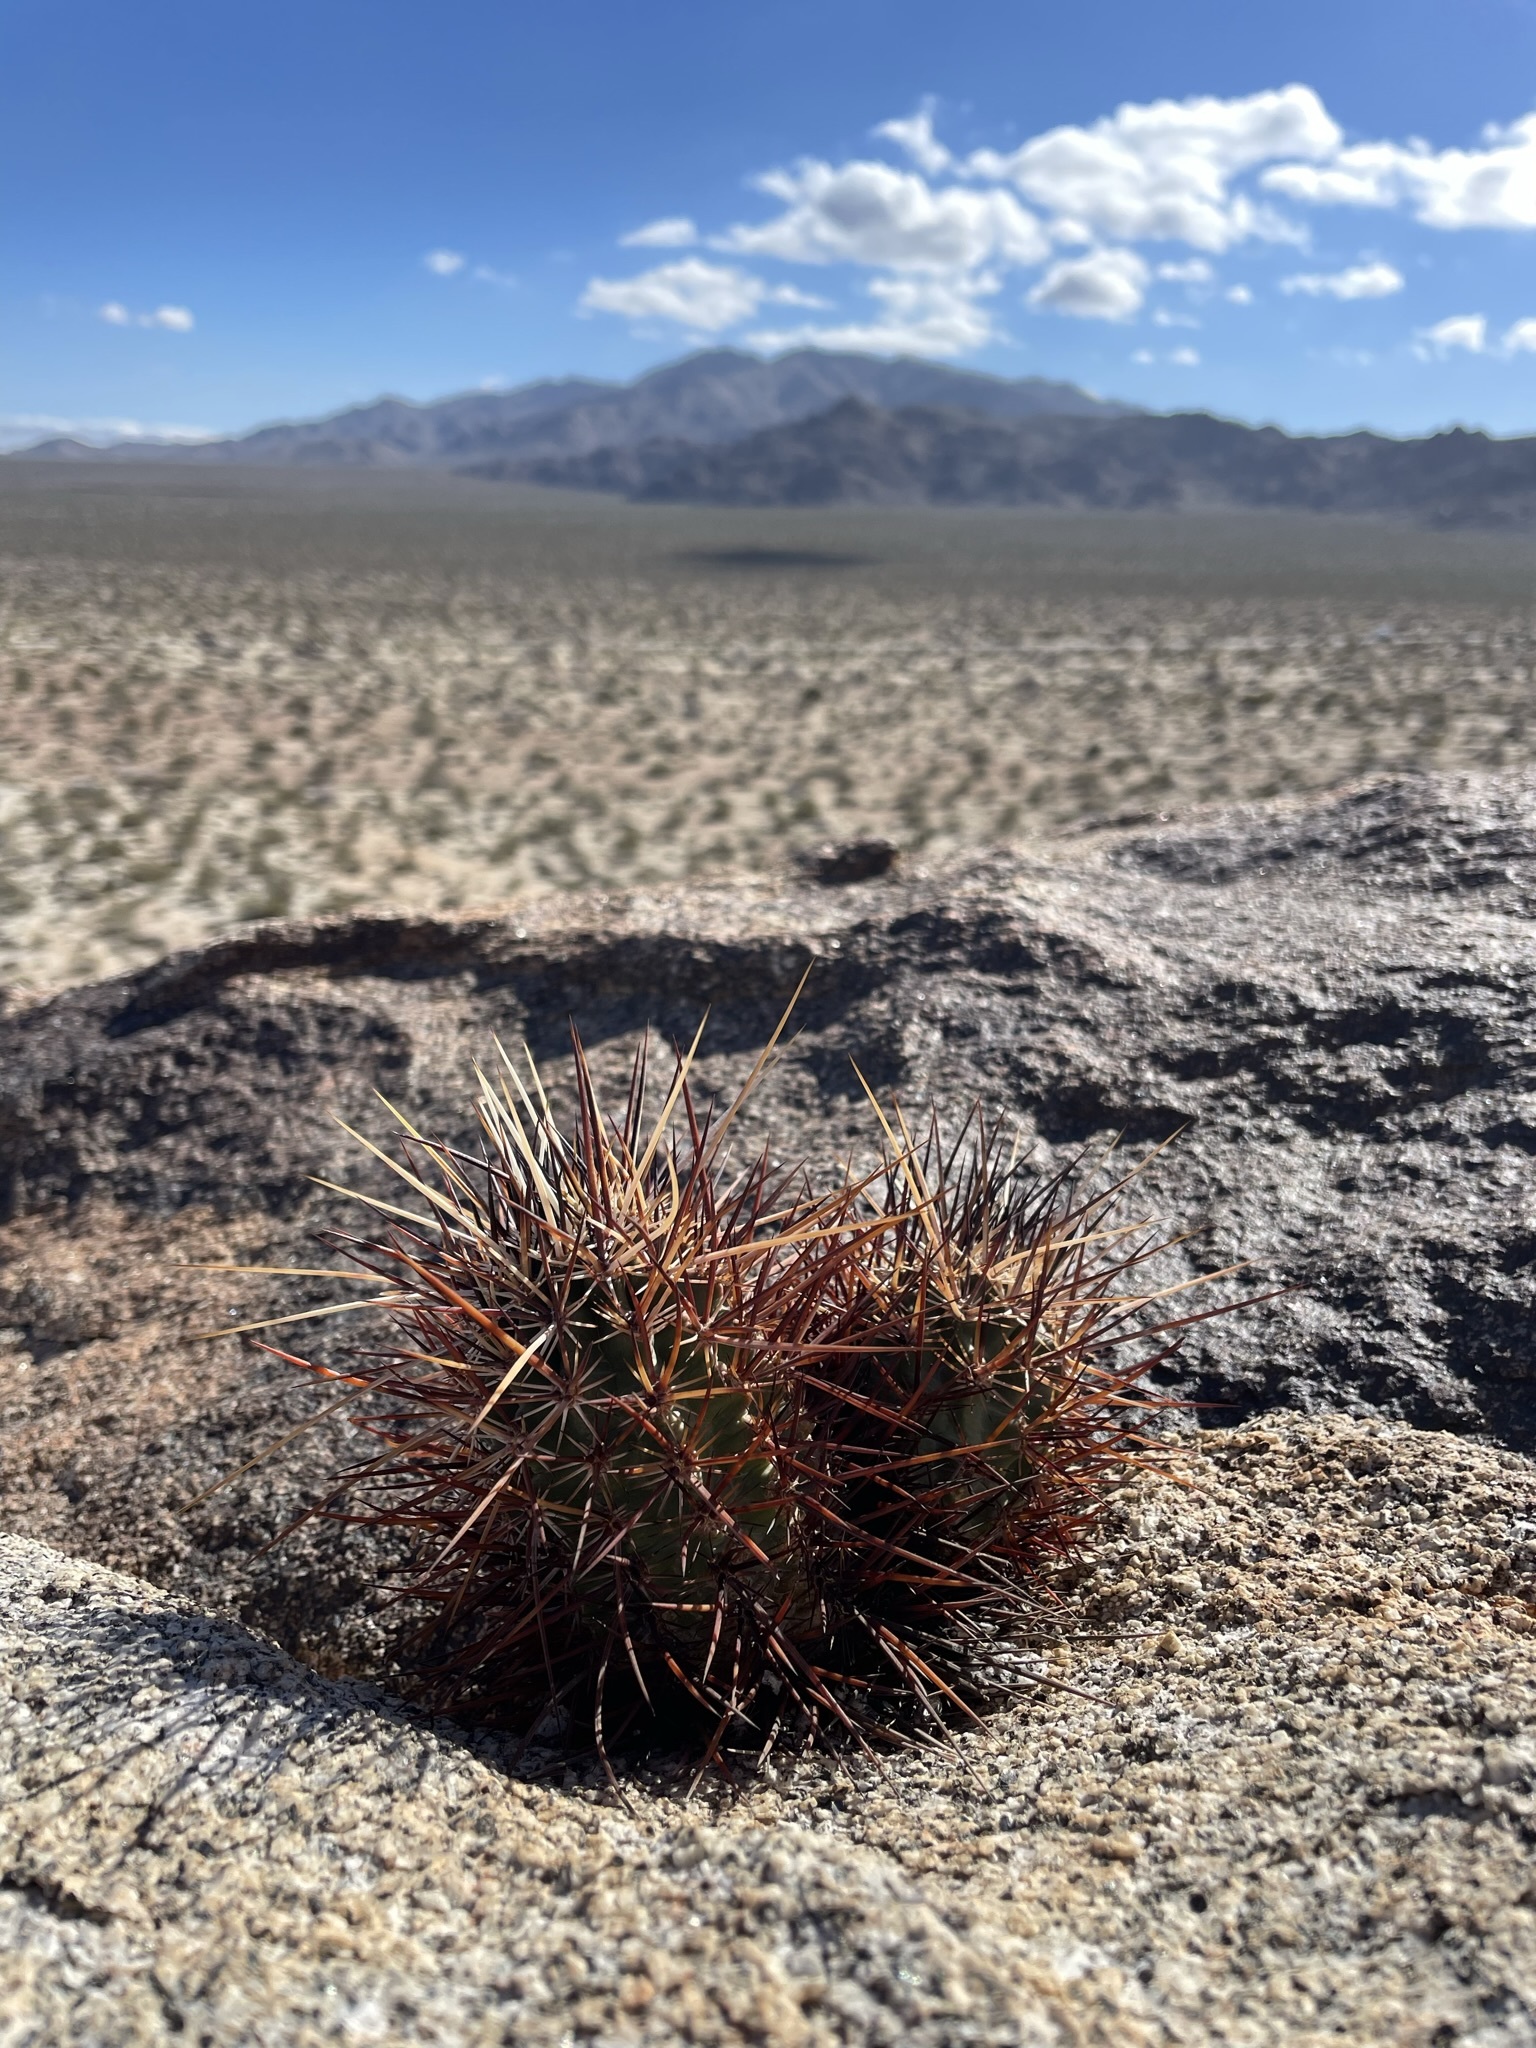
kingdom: Plantae
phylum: Tracheophyta
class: Magnoliopsida
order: Caryophyllales
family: Cactaceae
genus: Echinocereus
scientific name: Echinocereus engelmannii
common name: Engelmann's hedgehog cactus
